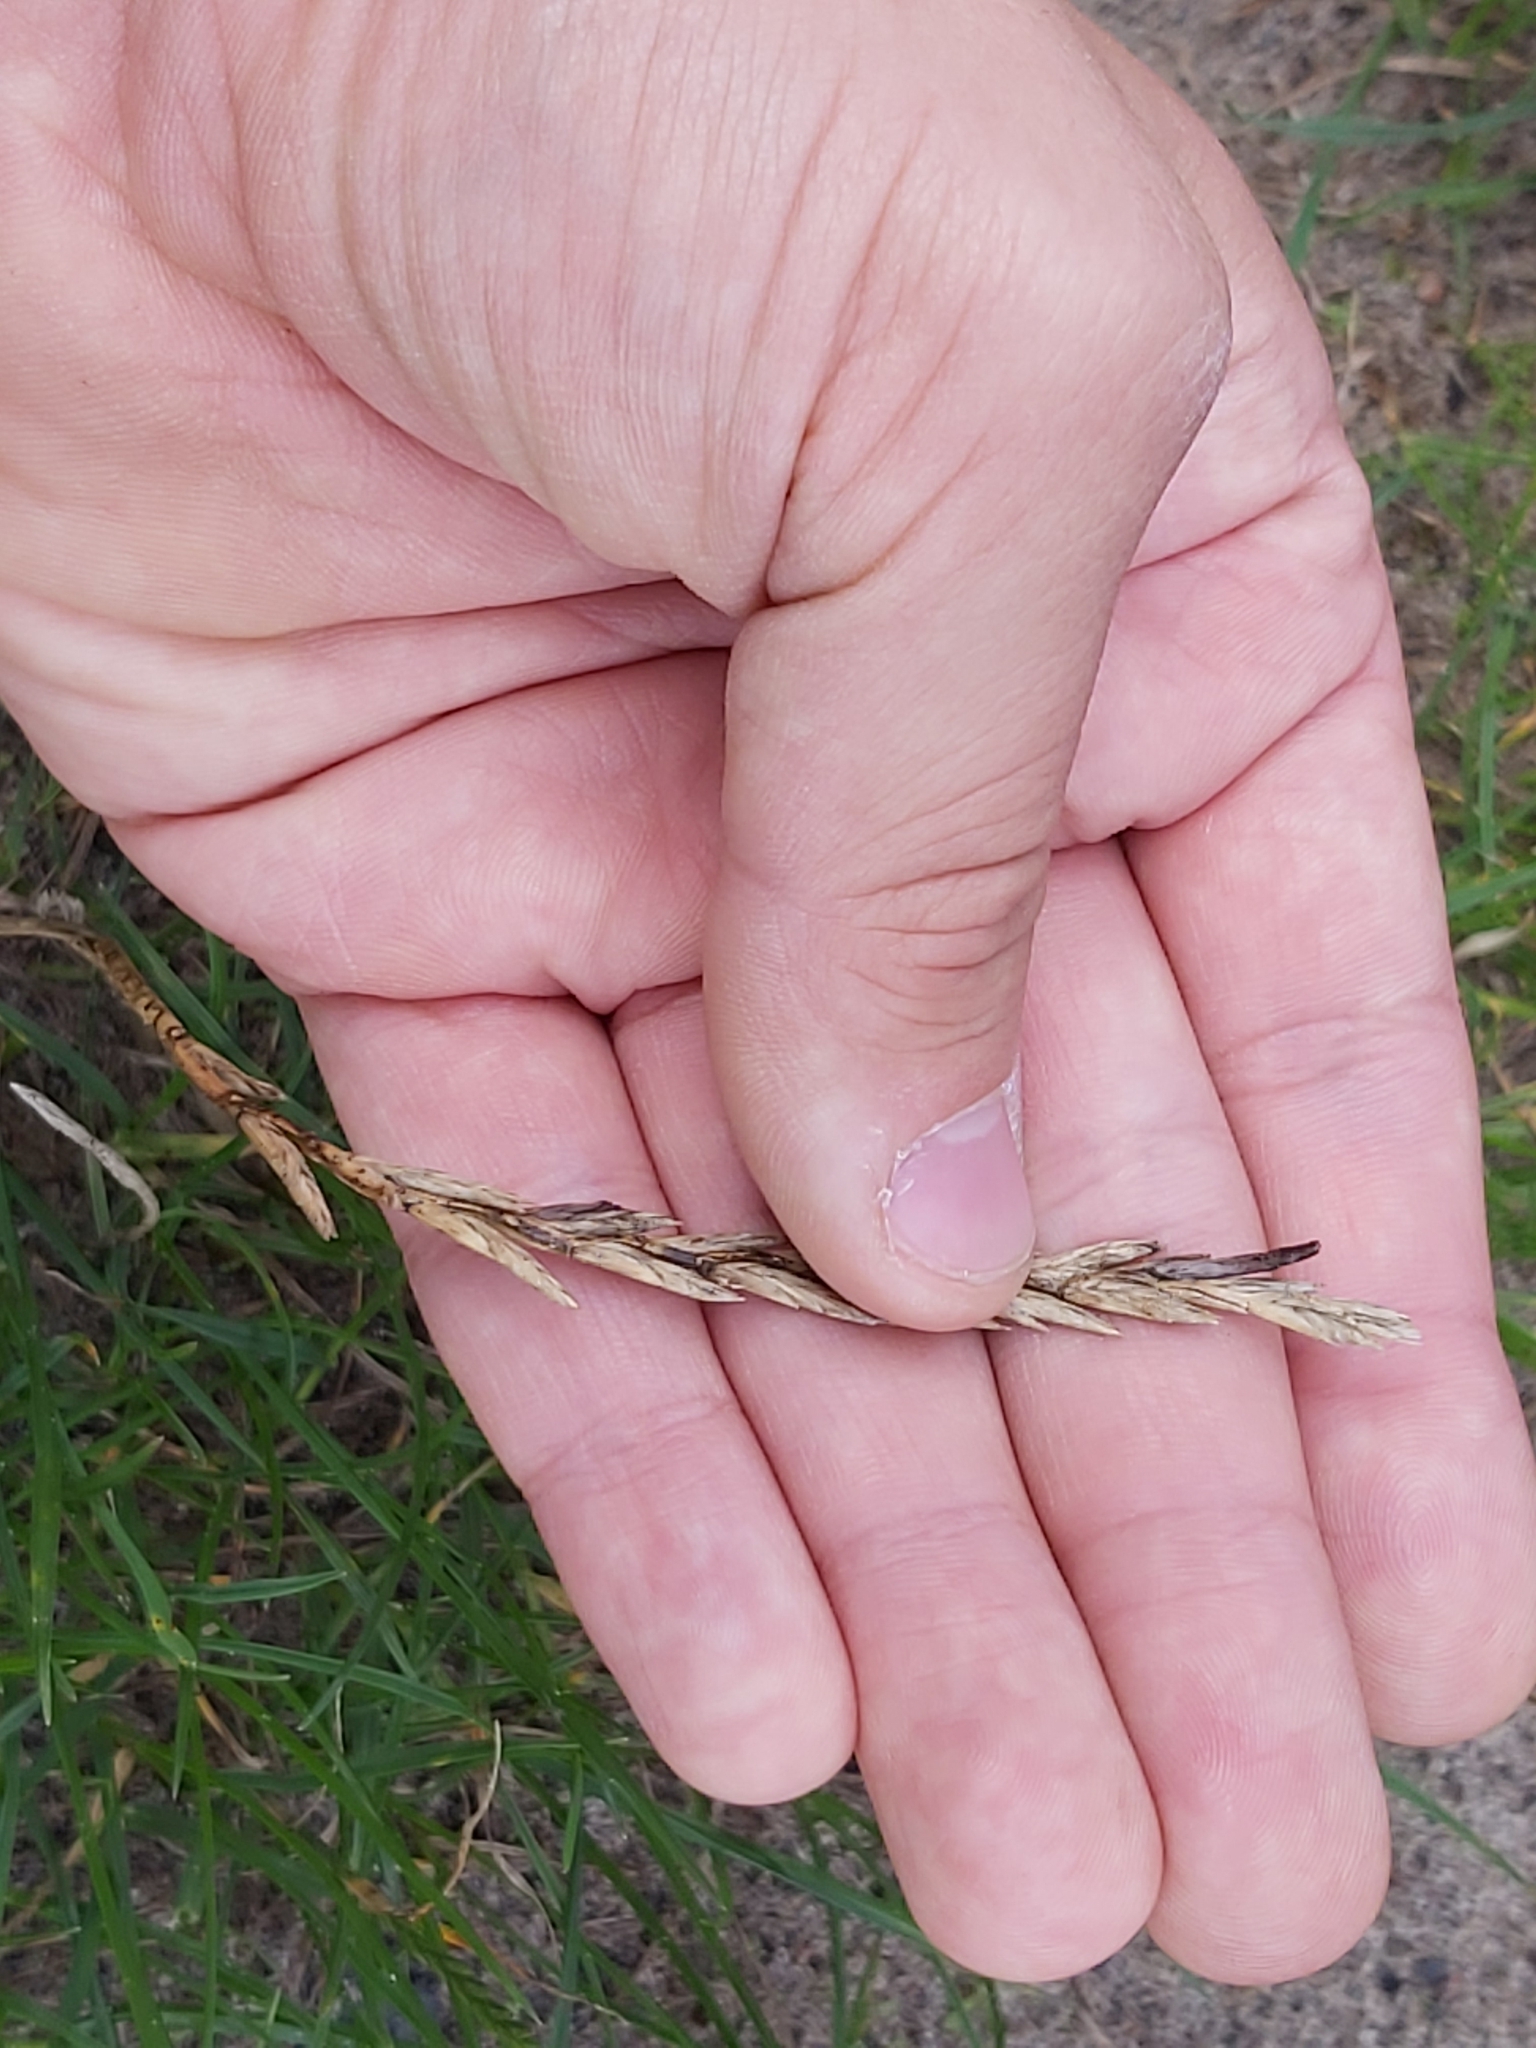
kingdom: Fungi
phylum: Ascomycota
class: Sordariomycetes
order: Hypocreales
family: Clavicipitaceae
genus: Claviceps
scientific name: Claviceps purpurea
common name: Rye ergot
